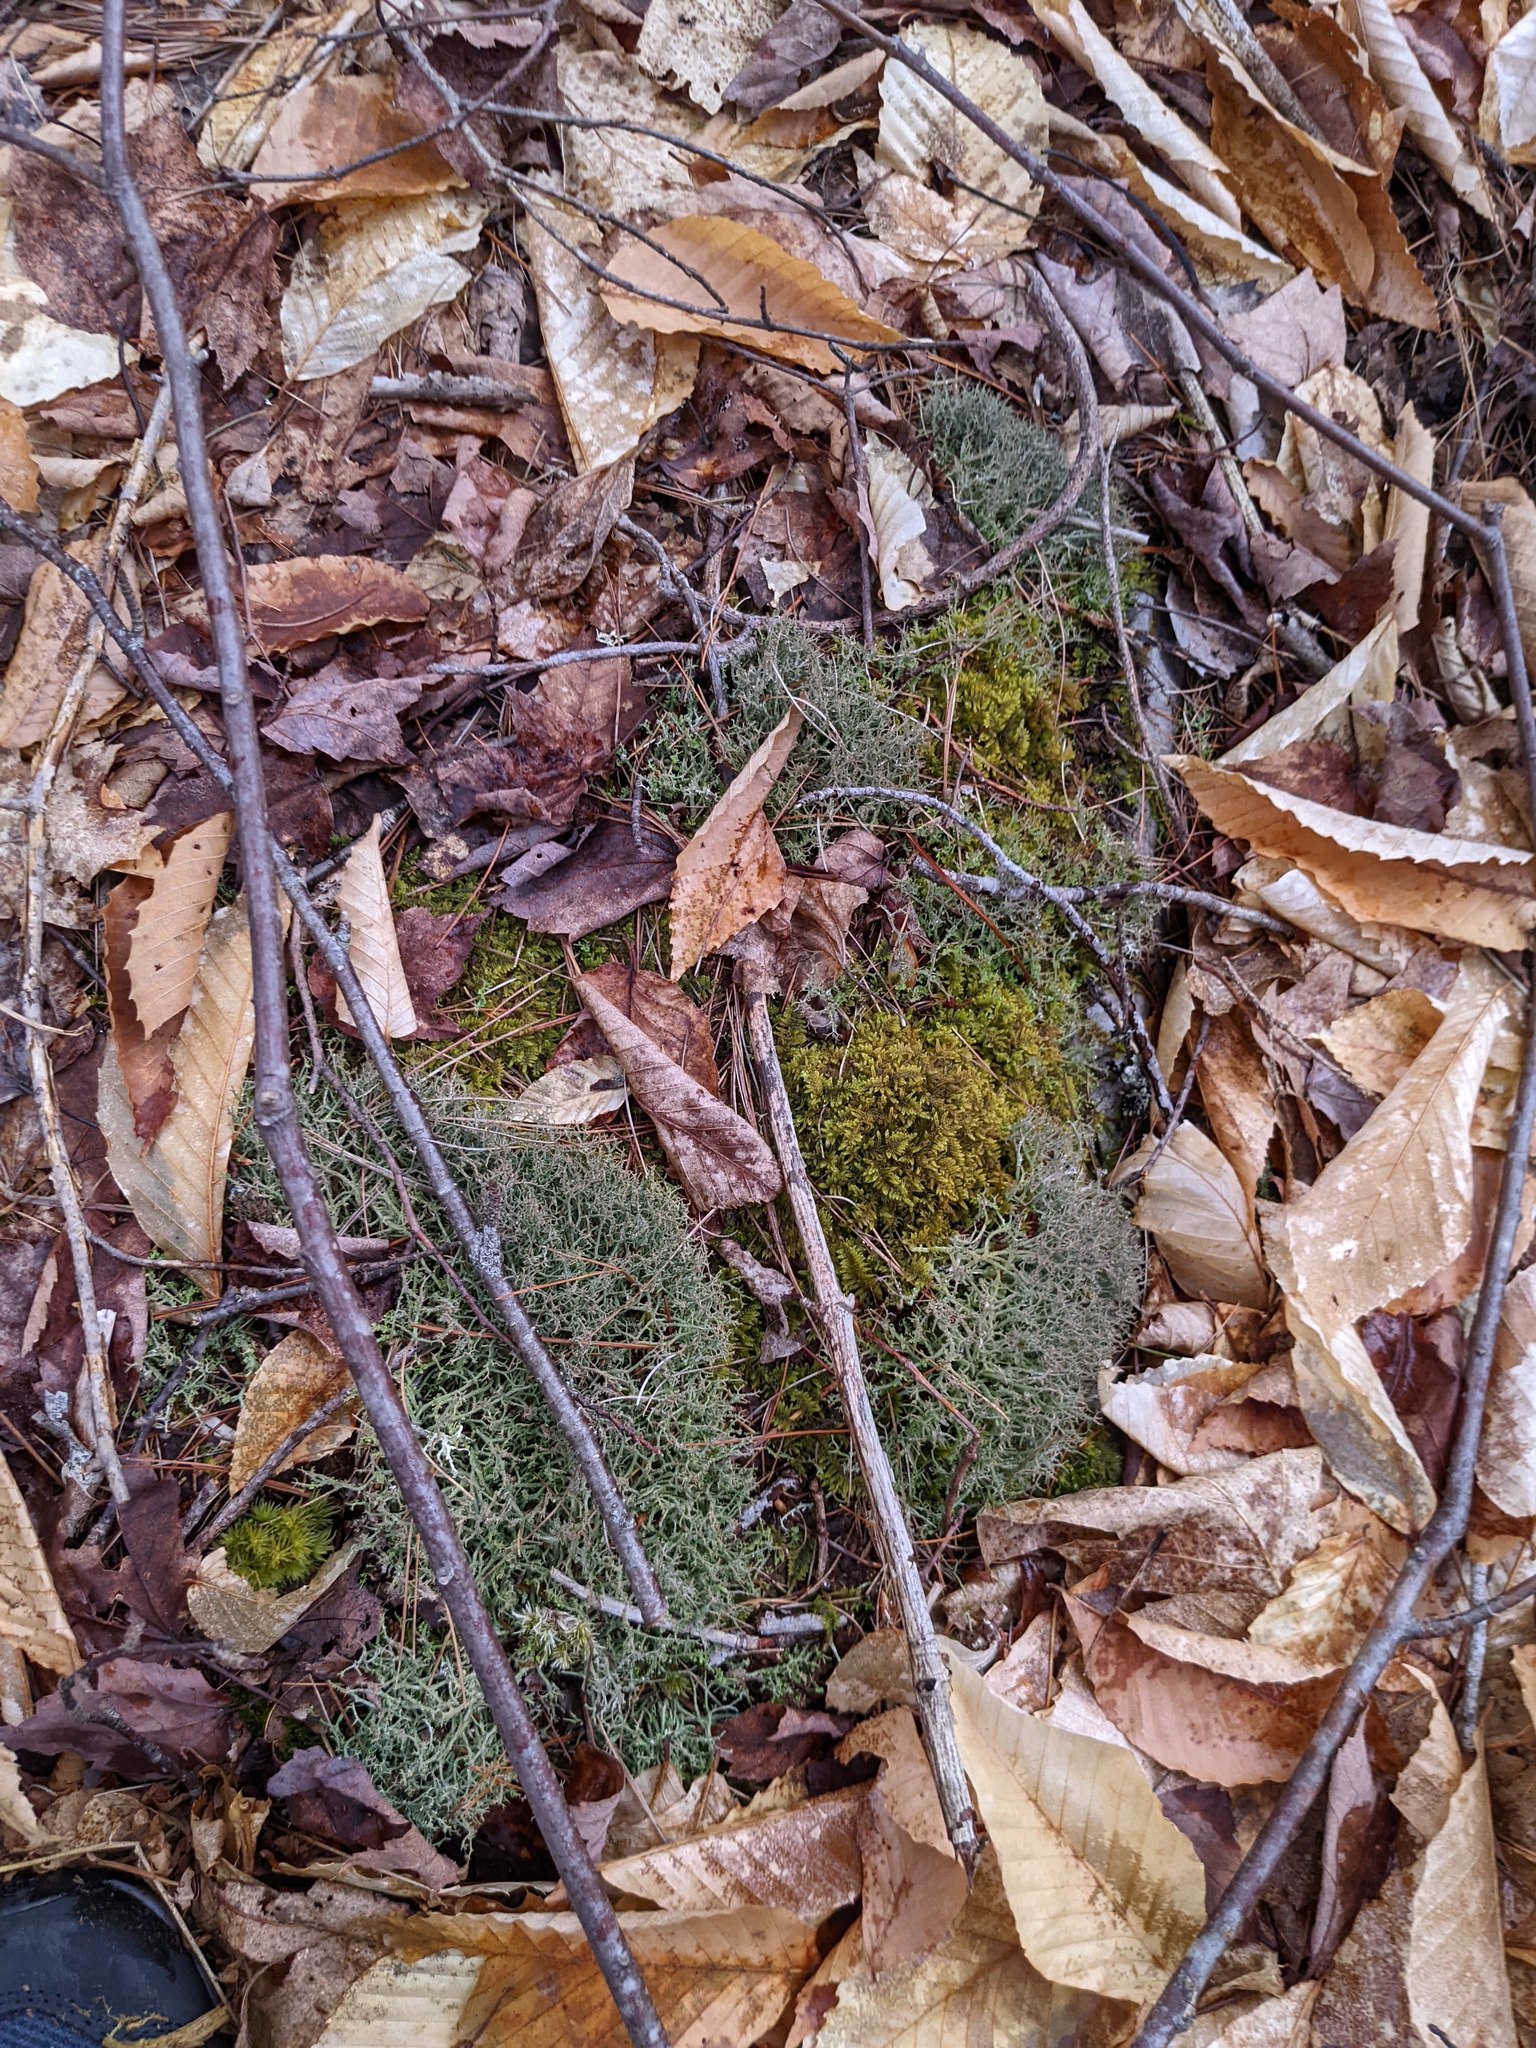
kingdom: Fungi
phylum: Ascomycota
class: Lecanoromycetes
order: Lecanorales
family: Cladoniaceae
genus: Cladonia
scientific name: Cladonia furcata
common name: Many-forked cladonia
